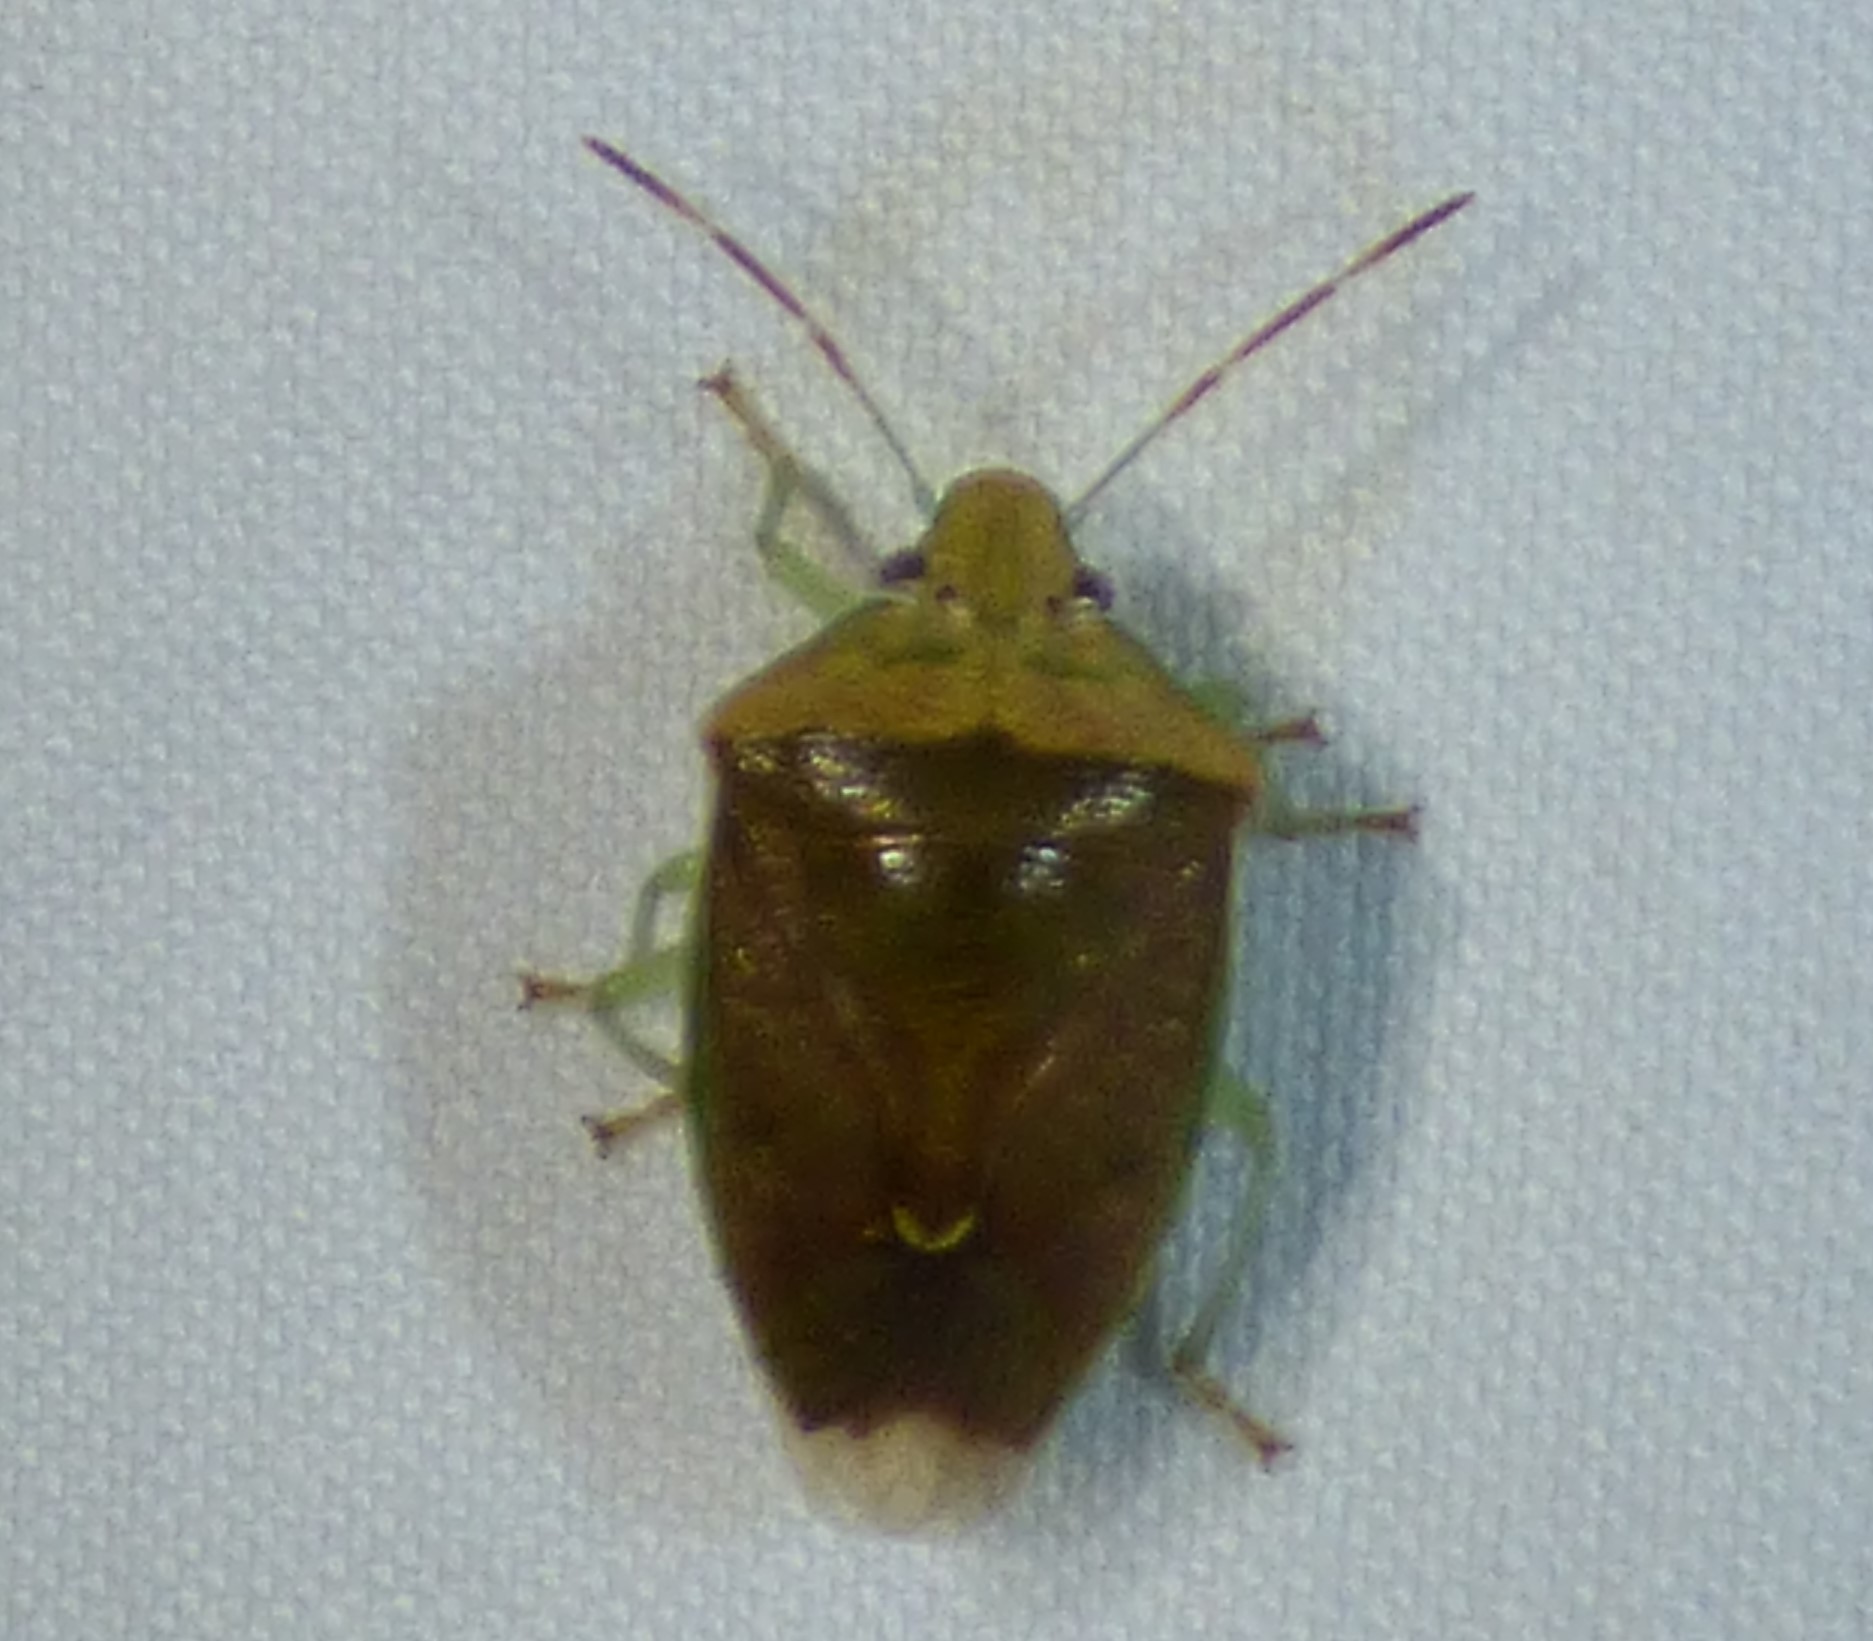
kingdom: Animalia
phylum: Arthropoda
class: Insecta
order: Hemiptera
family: Pentatomidae
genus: Banasa
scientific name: Banasa calva
